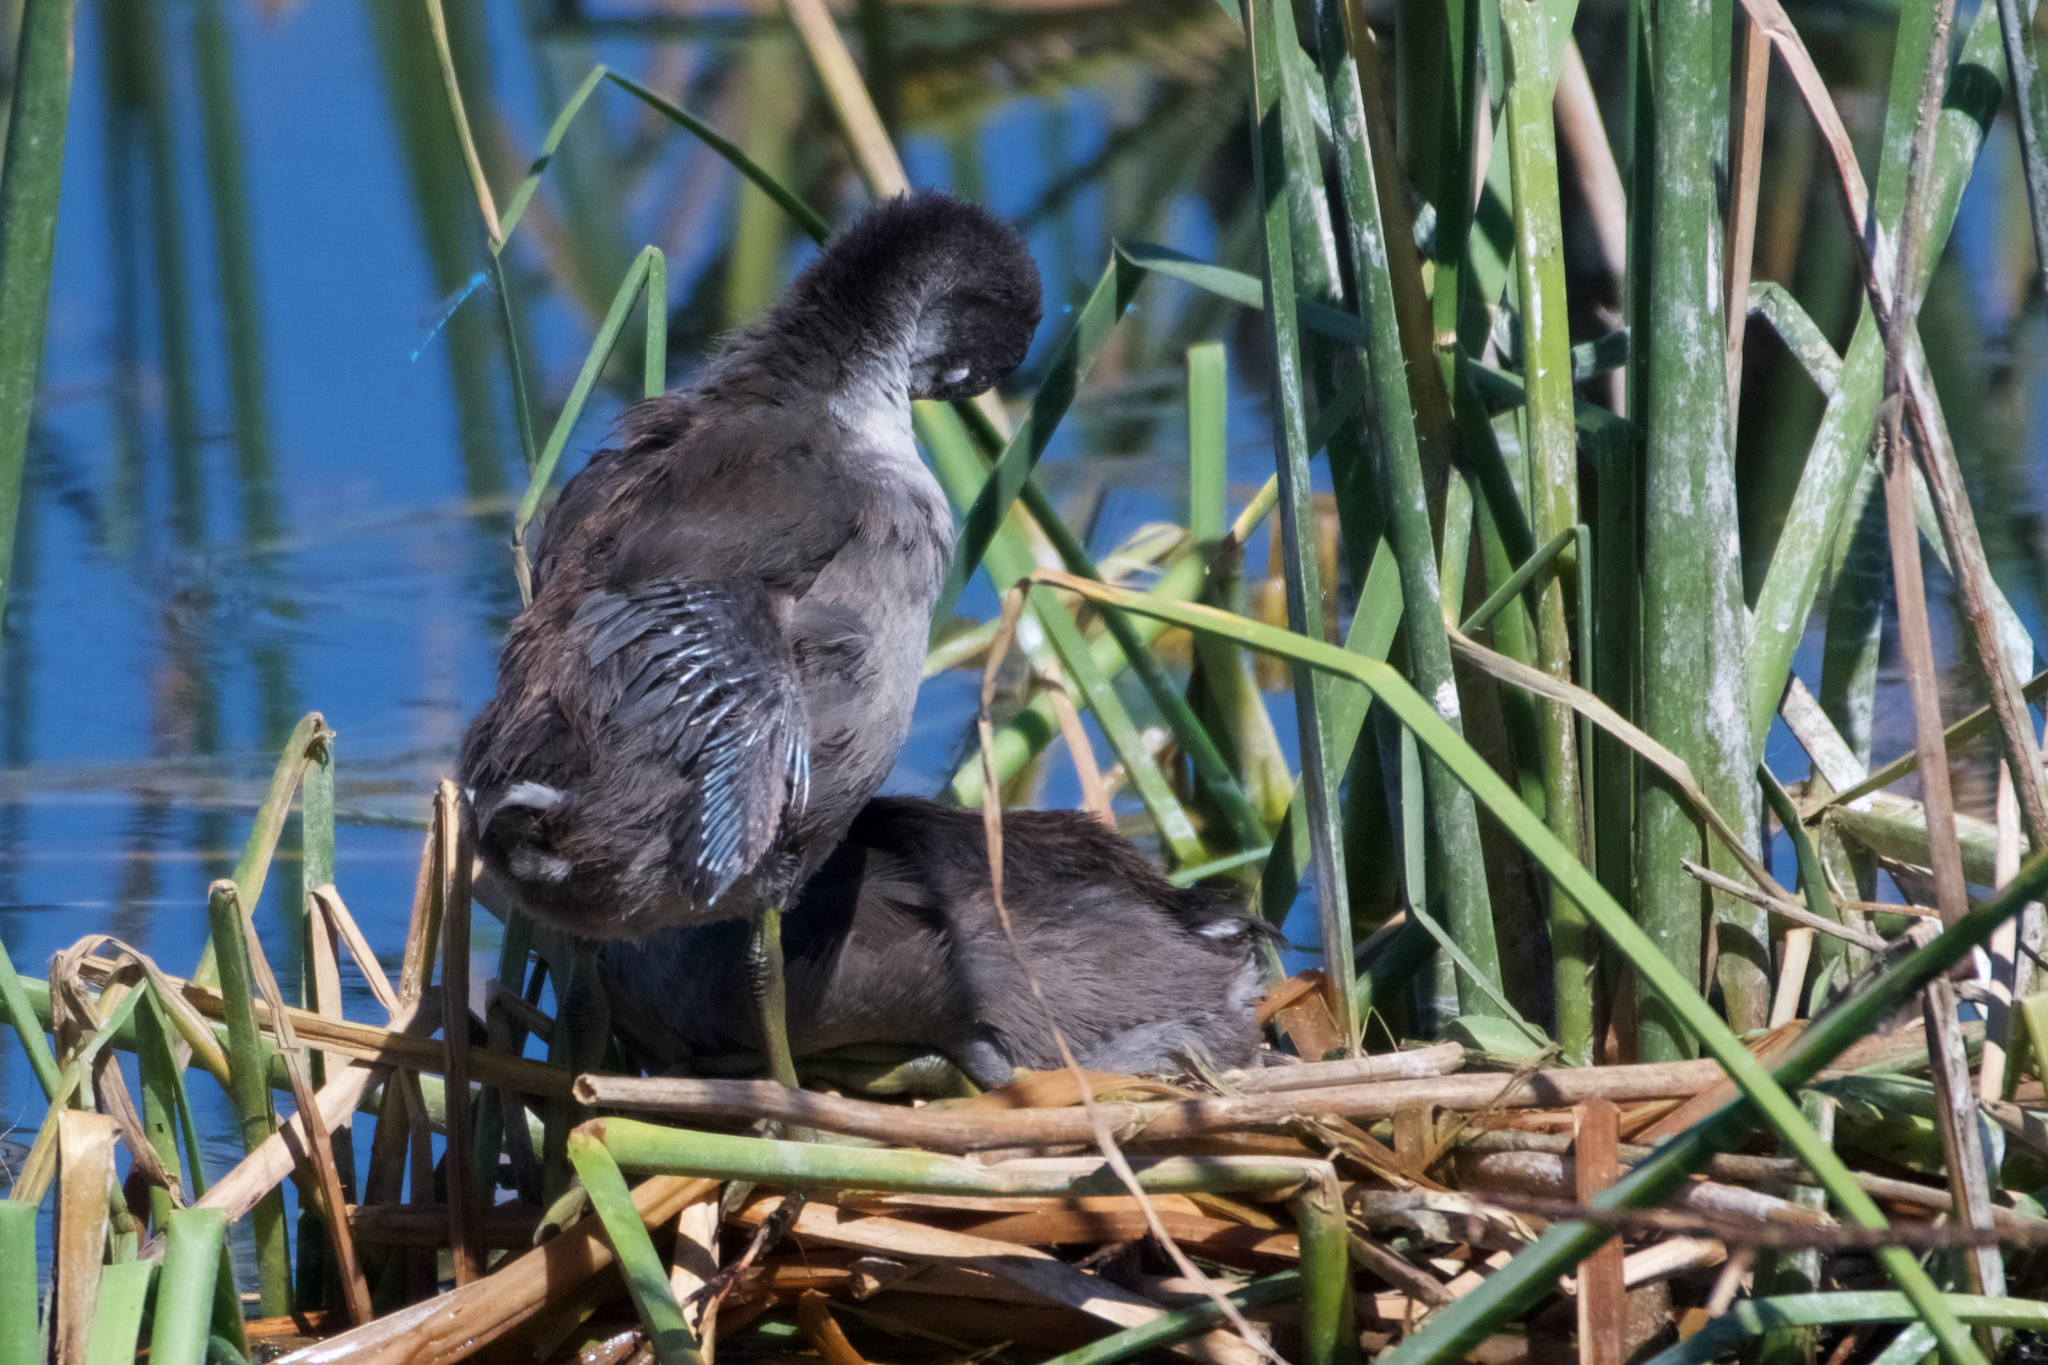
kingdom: Animalia
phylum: Chordata
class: Aves
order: Gruiformes
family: Rallidae
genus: Fulica
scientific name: Fulica americana
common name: American coot
